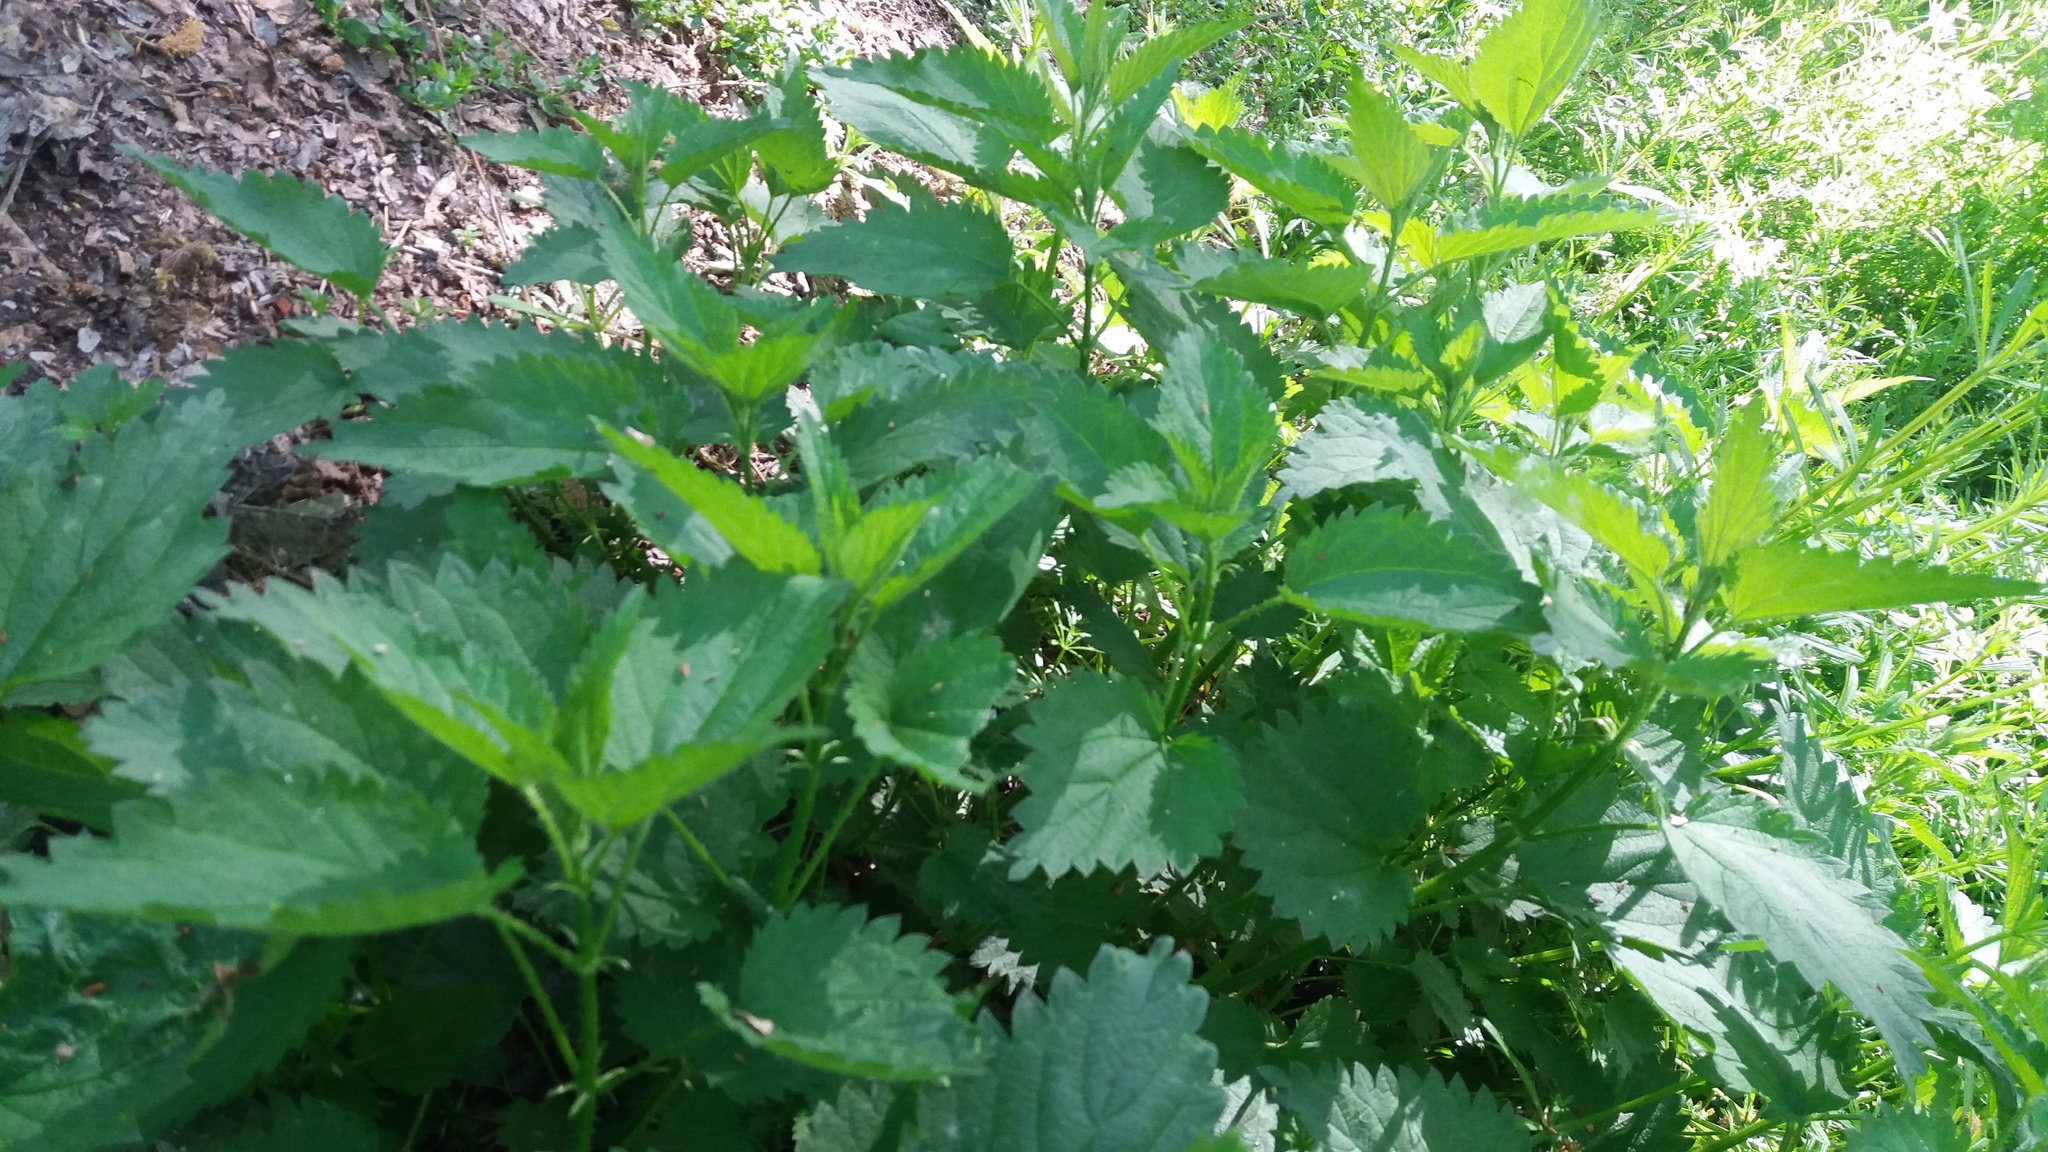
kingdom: Plantae
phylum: Tracheophyta
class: Magnoliopsida
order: Rosales
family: Urticaceae
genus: Urtica
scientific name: Urtica dioica
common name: Common nettle
